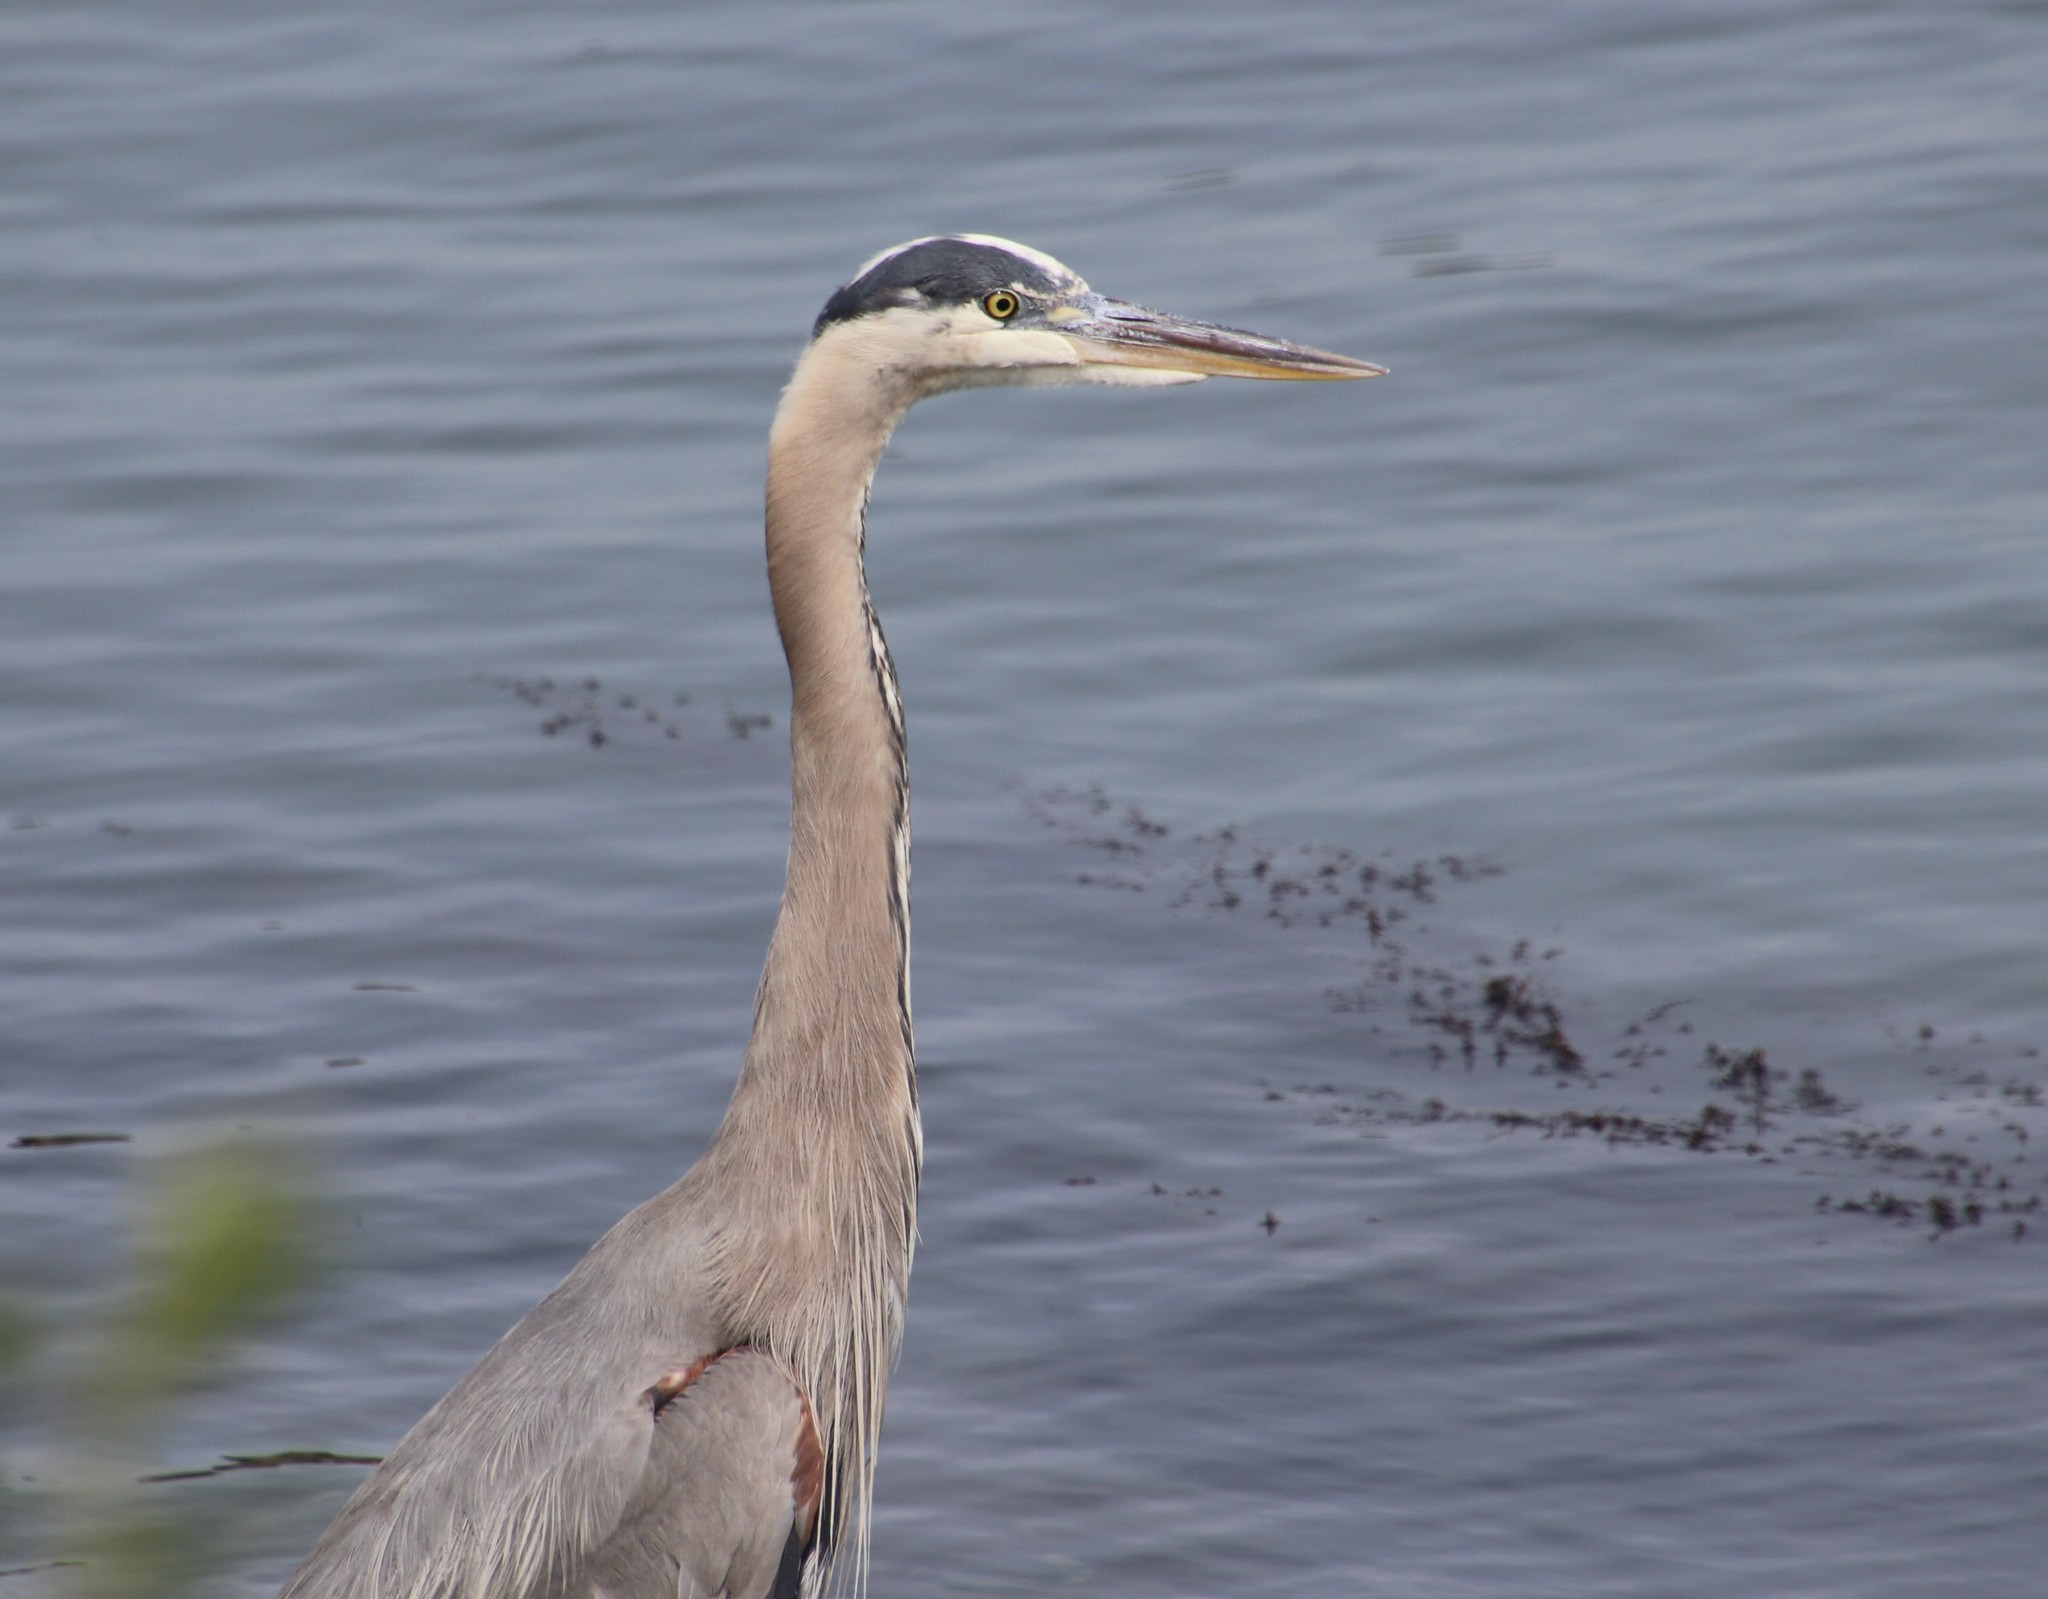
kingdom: Animalia
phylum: Chordata
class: Aves
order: Pelecaniformes
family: Ardeidae
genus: Ardea
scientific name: Ardea herodias
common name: Great blue heron
